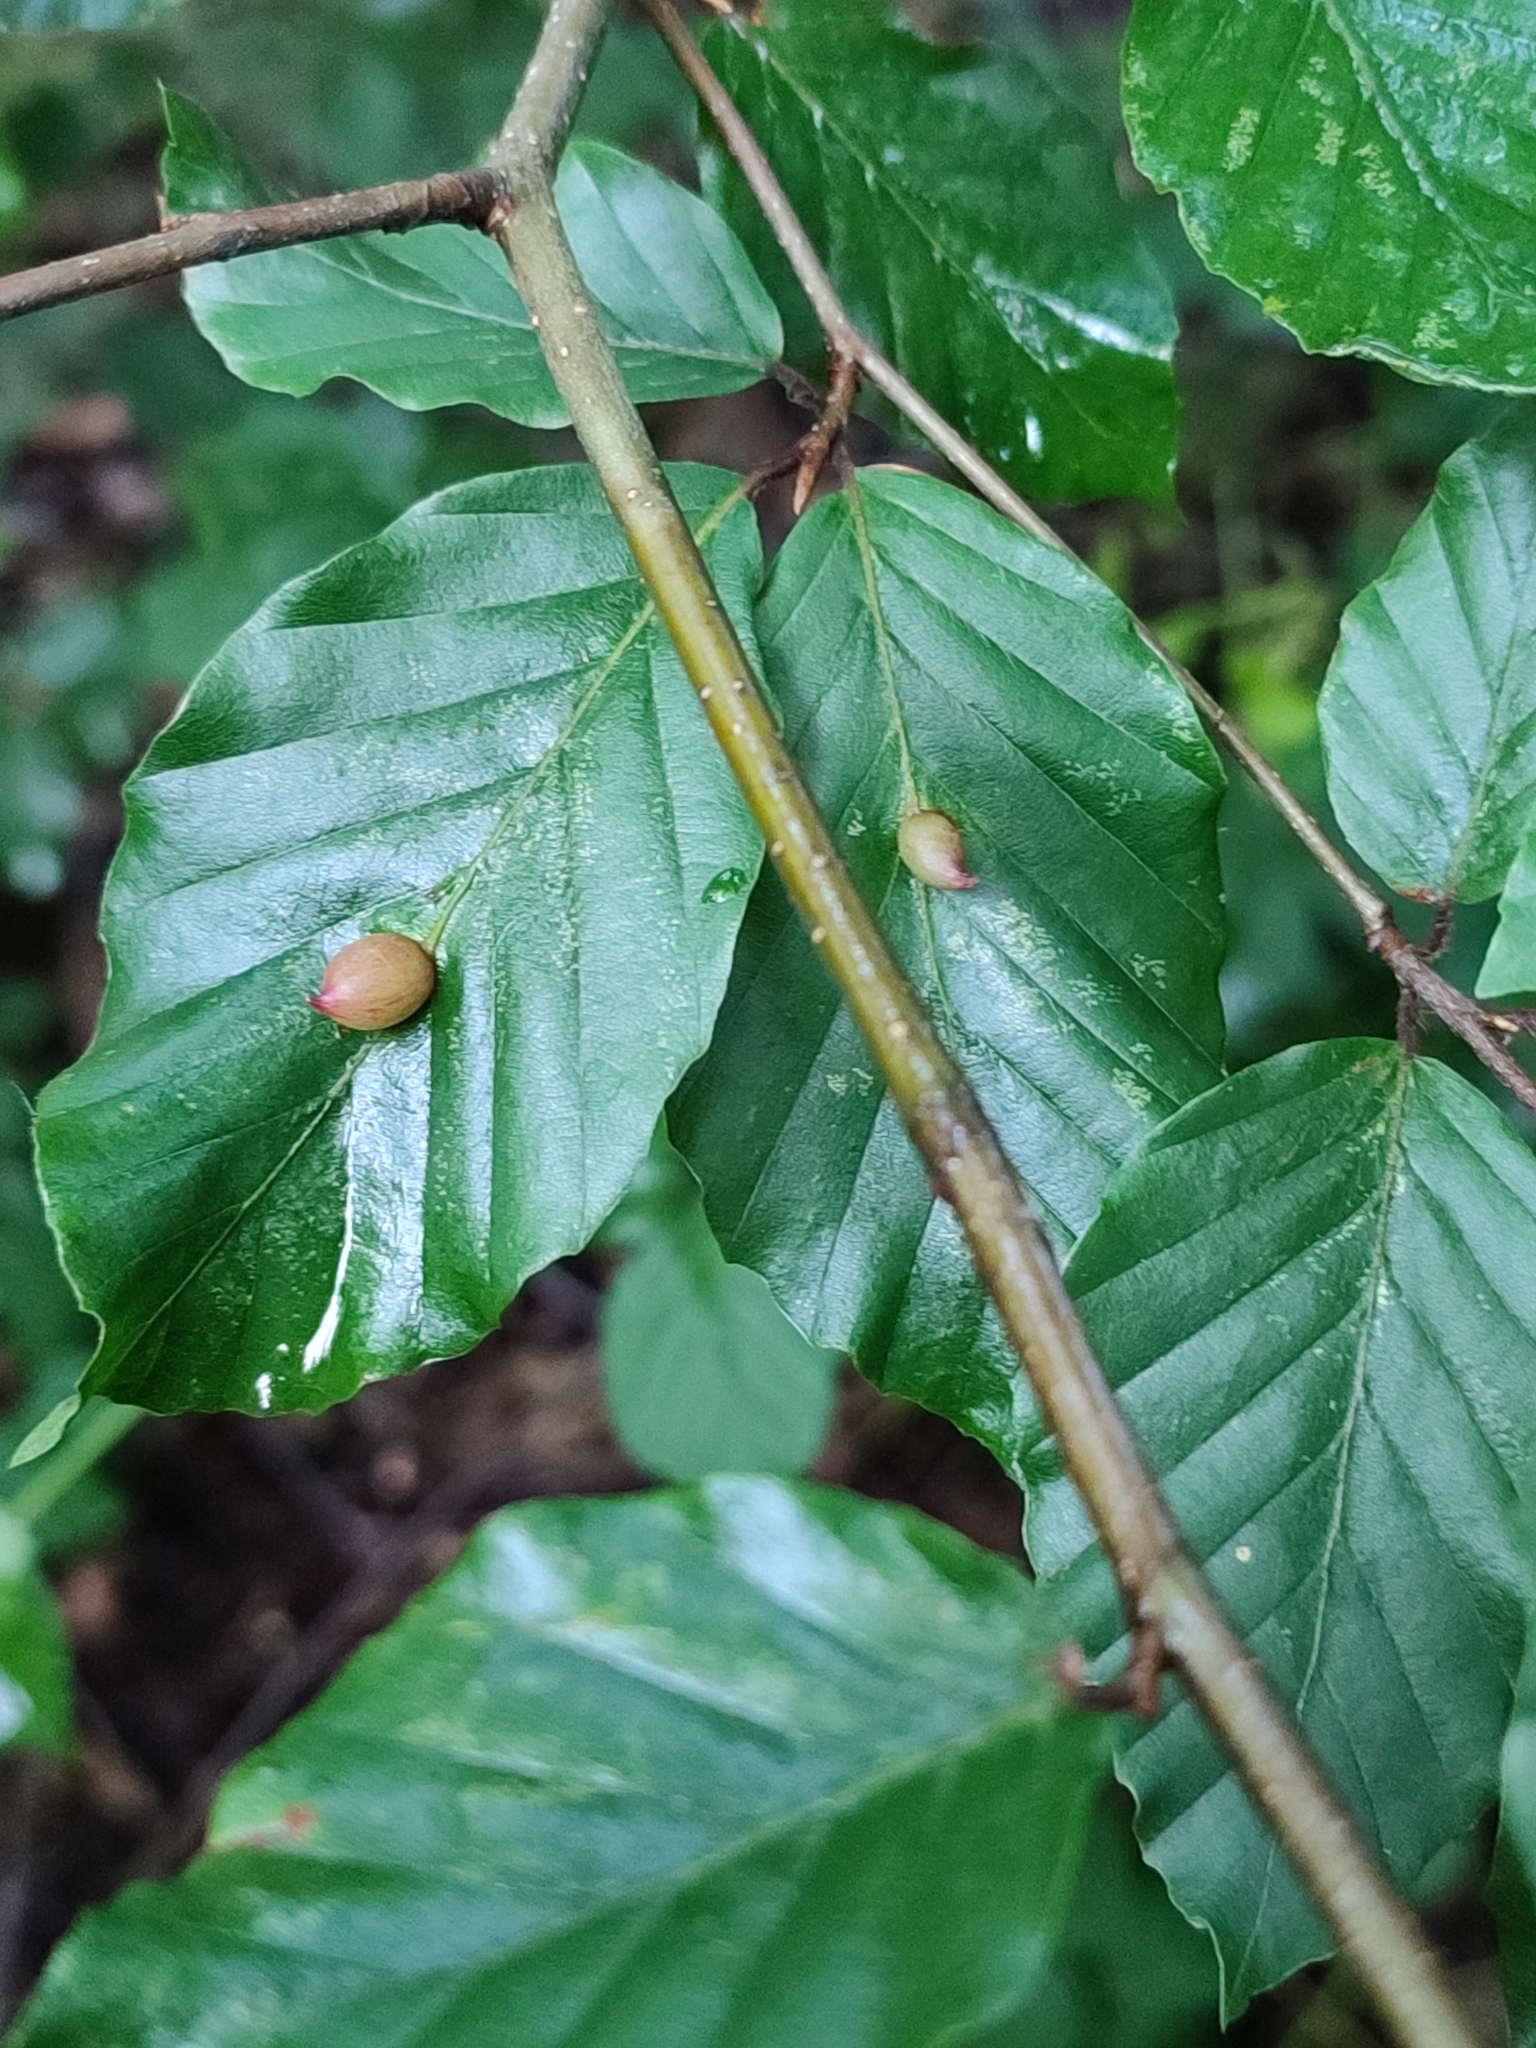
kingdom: Animalia
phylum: Arthropoda
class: Insecta
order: Diptera
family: Cecidomyiidae
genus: Mikiola
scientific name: Mikiola fagi
